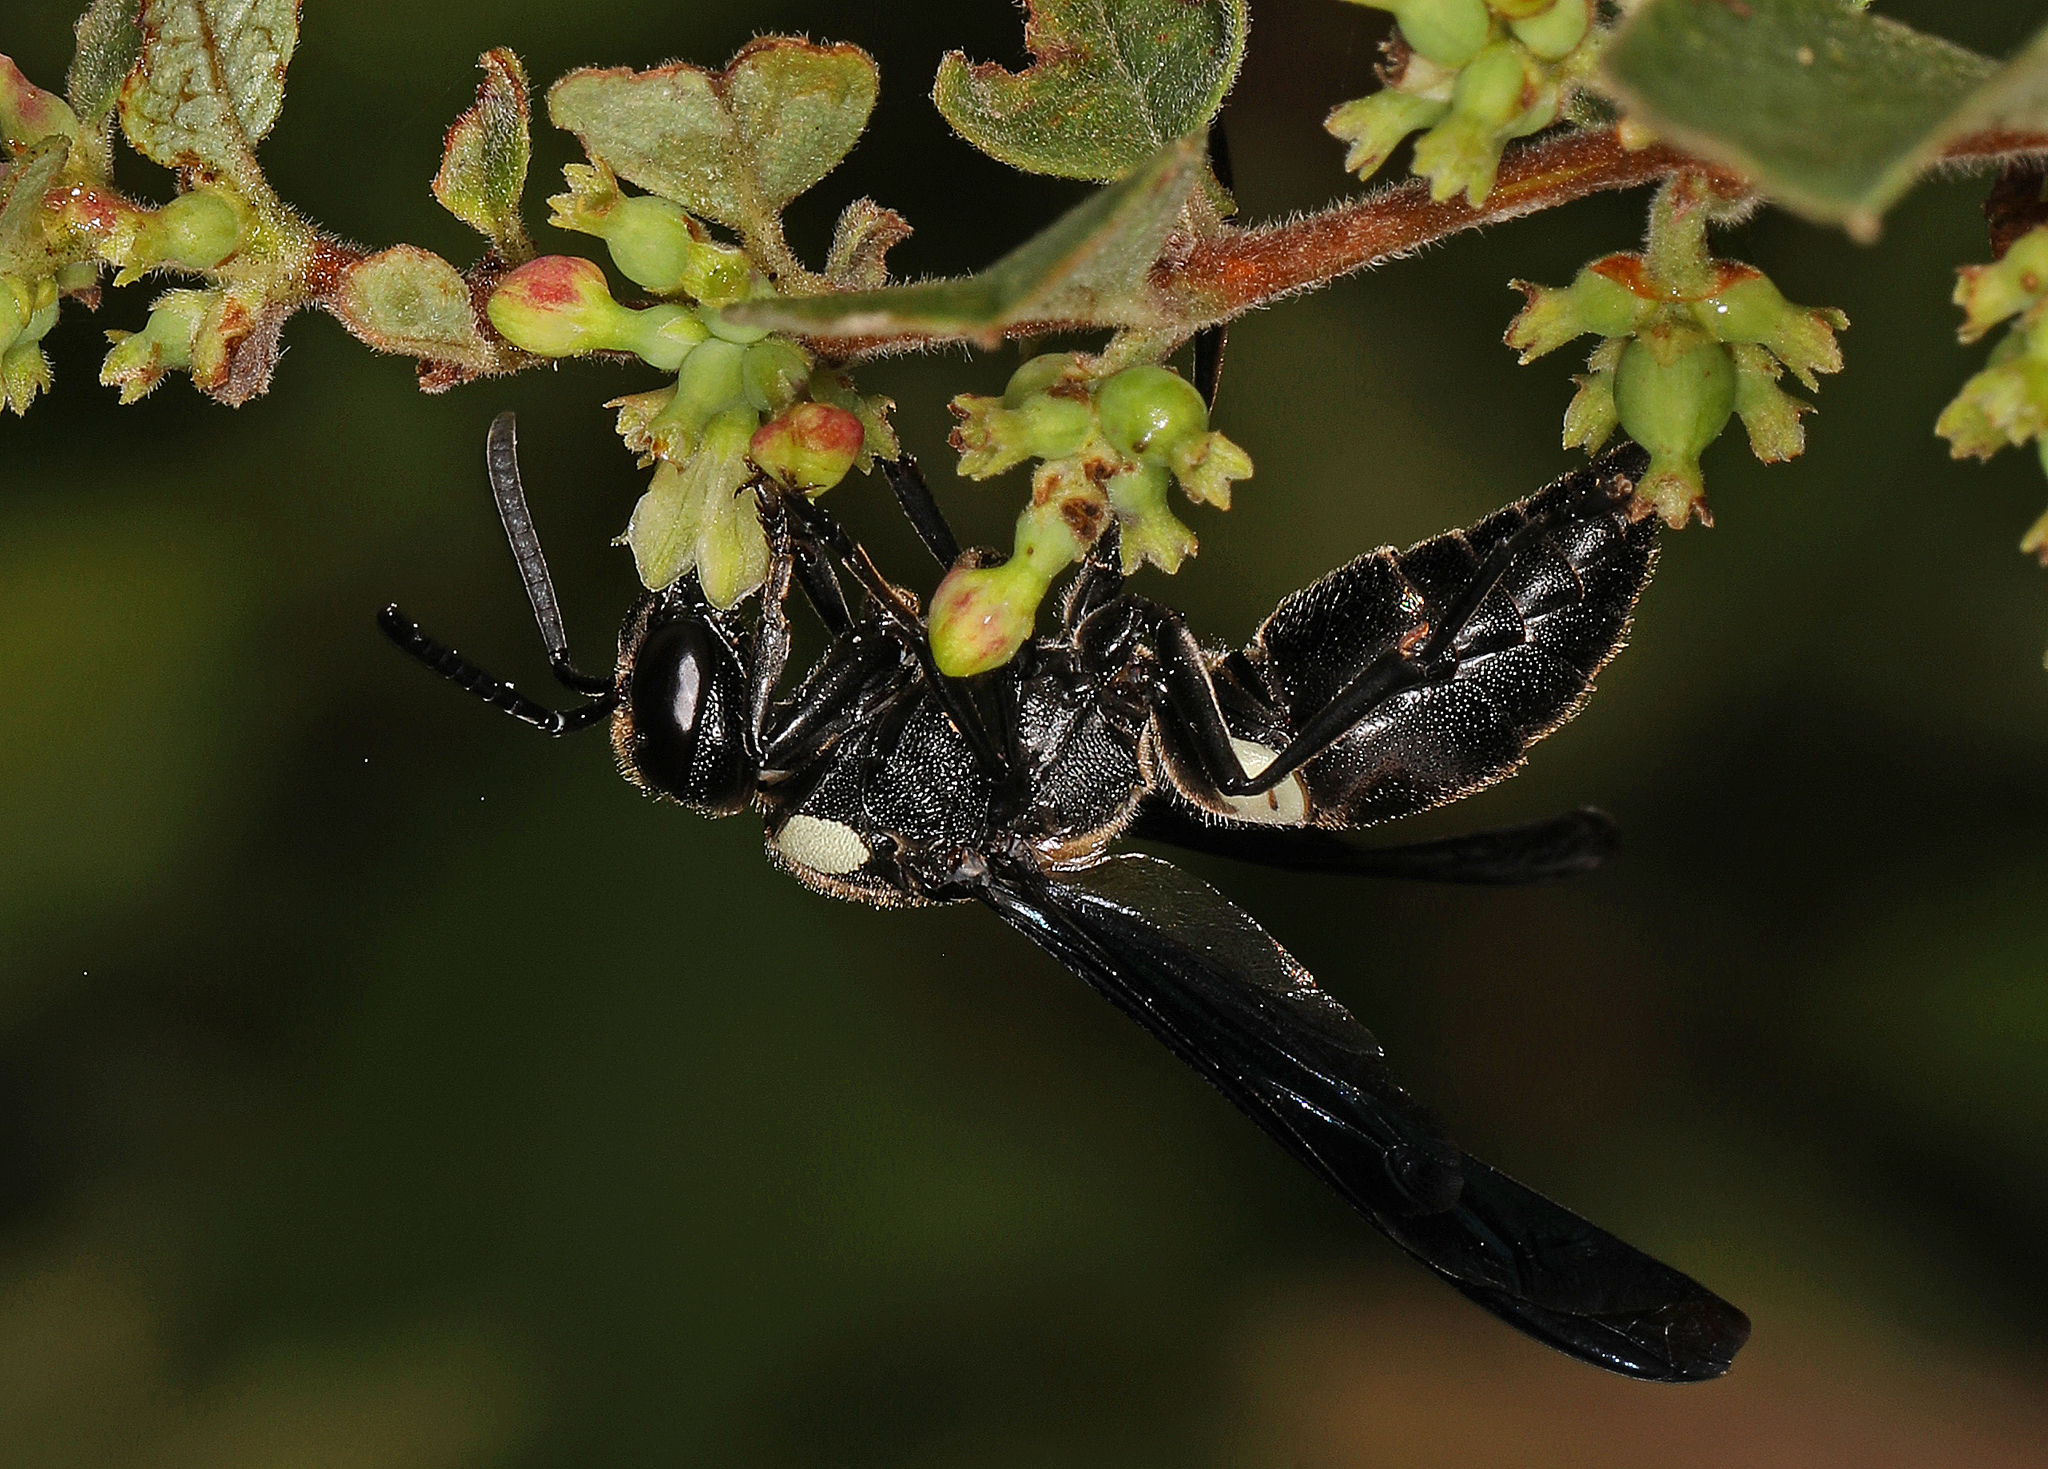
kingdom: Animalia
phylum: Arthropoda
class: Insecta
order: Hymenoptera
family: Eumenidae
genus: Monobia
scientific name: Monobia quadridens
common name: Four-toothed mason wasp
